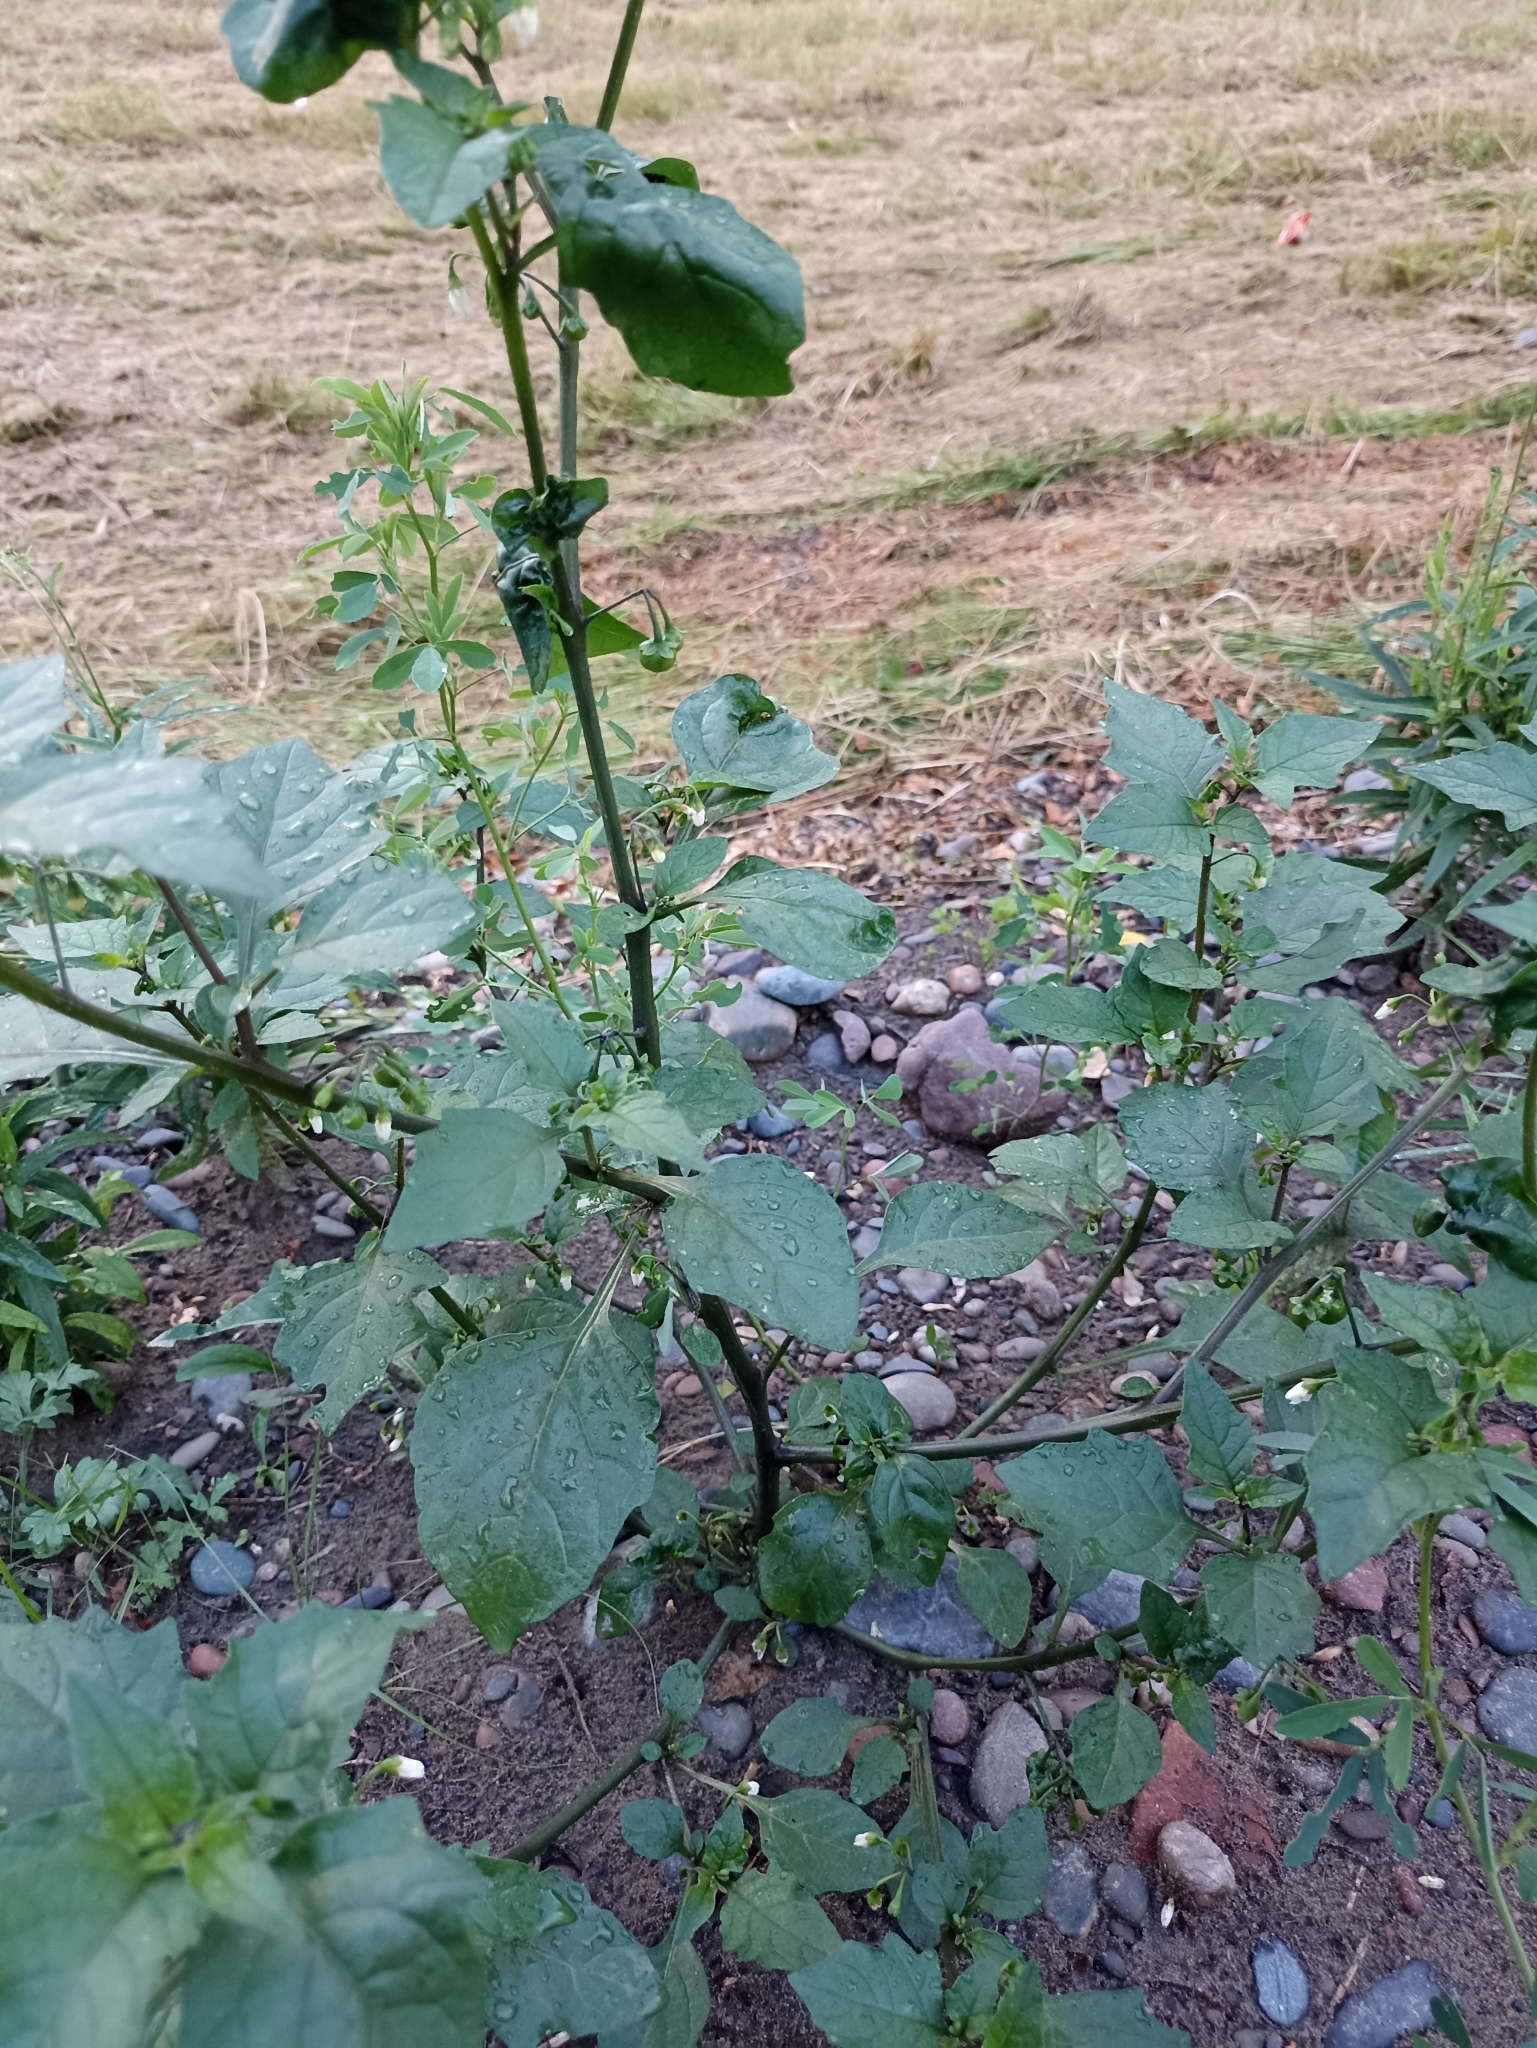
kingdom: Plantae
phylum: Tracheophyta
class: Magnoliopsida
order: Solanales
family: Solanaceae
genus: Solanum
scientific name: Solanum nigrum
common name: Black nightshade
